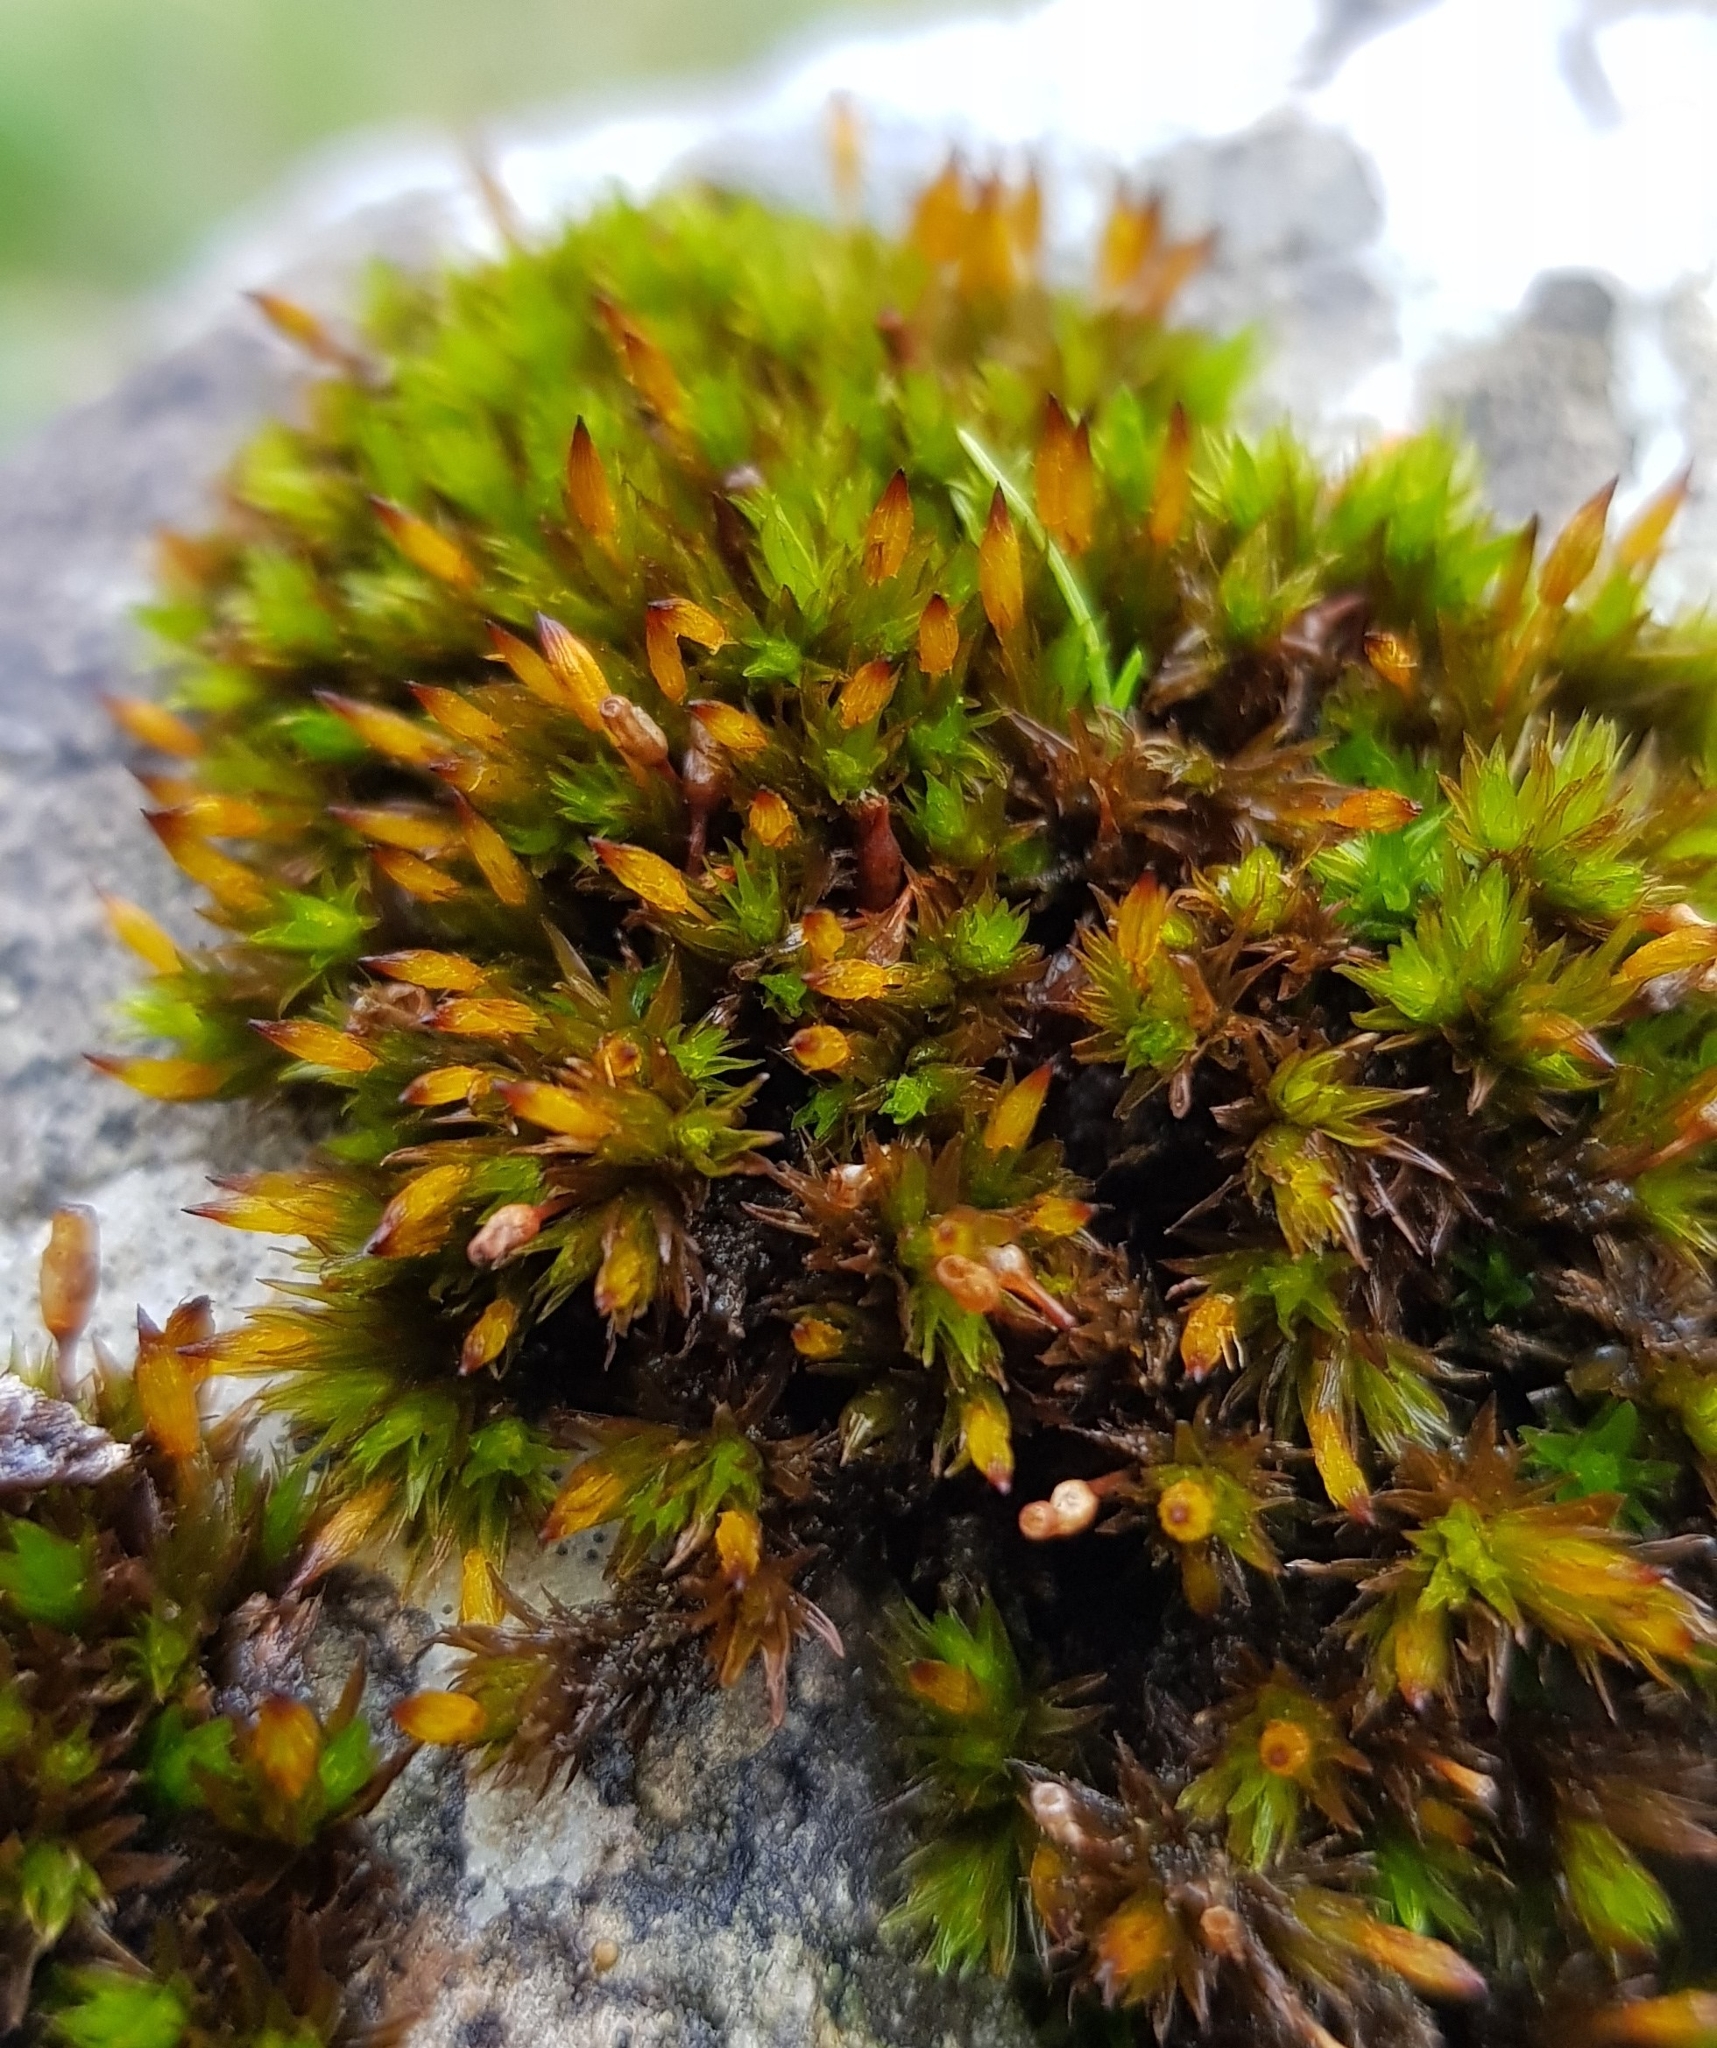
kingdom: Plantae
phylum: Bryophyta
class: Bryopsida
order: Orthotrichales
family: Orthotrichaceae
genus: Orthotrichum
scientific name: Orthotrichum anomalum
